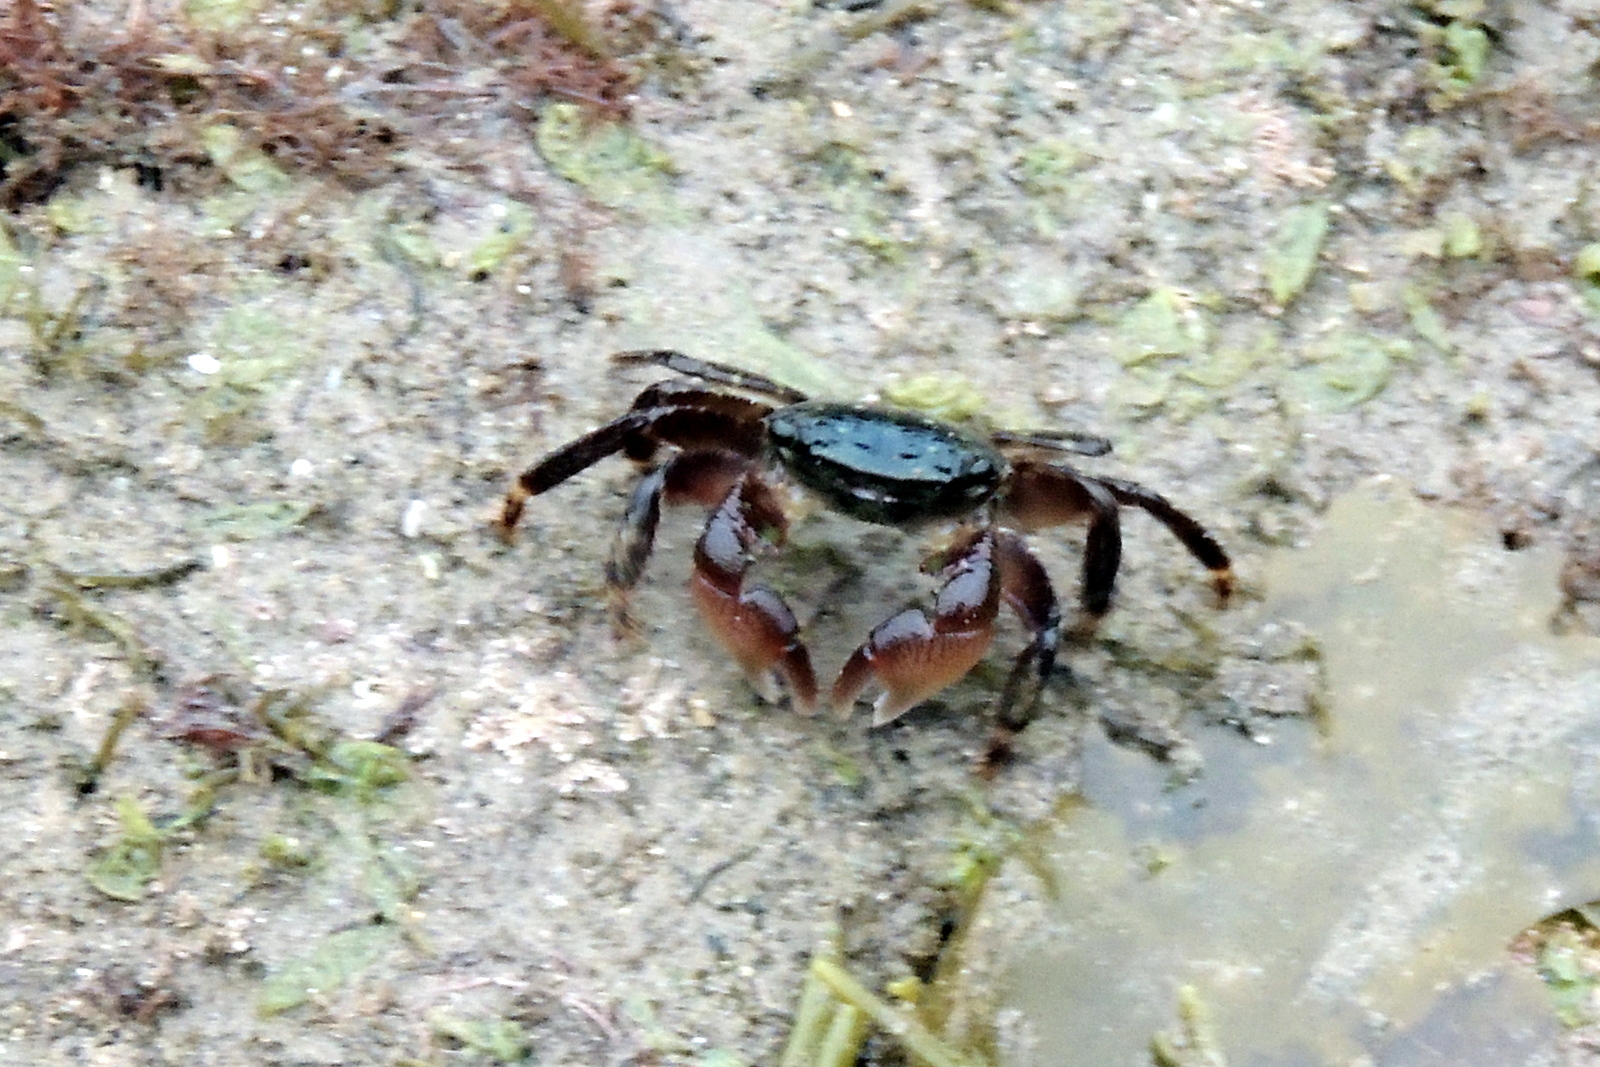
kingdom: Animalia
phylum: Arthropoda
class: Malacostraca
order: Decapoda
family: Grapsidae
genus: Pachygrapsus
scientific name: Pachygrapsus crassipes
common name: Striped shore crab
